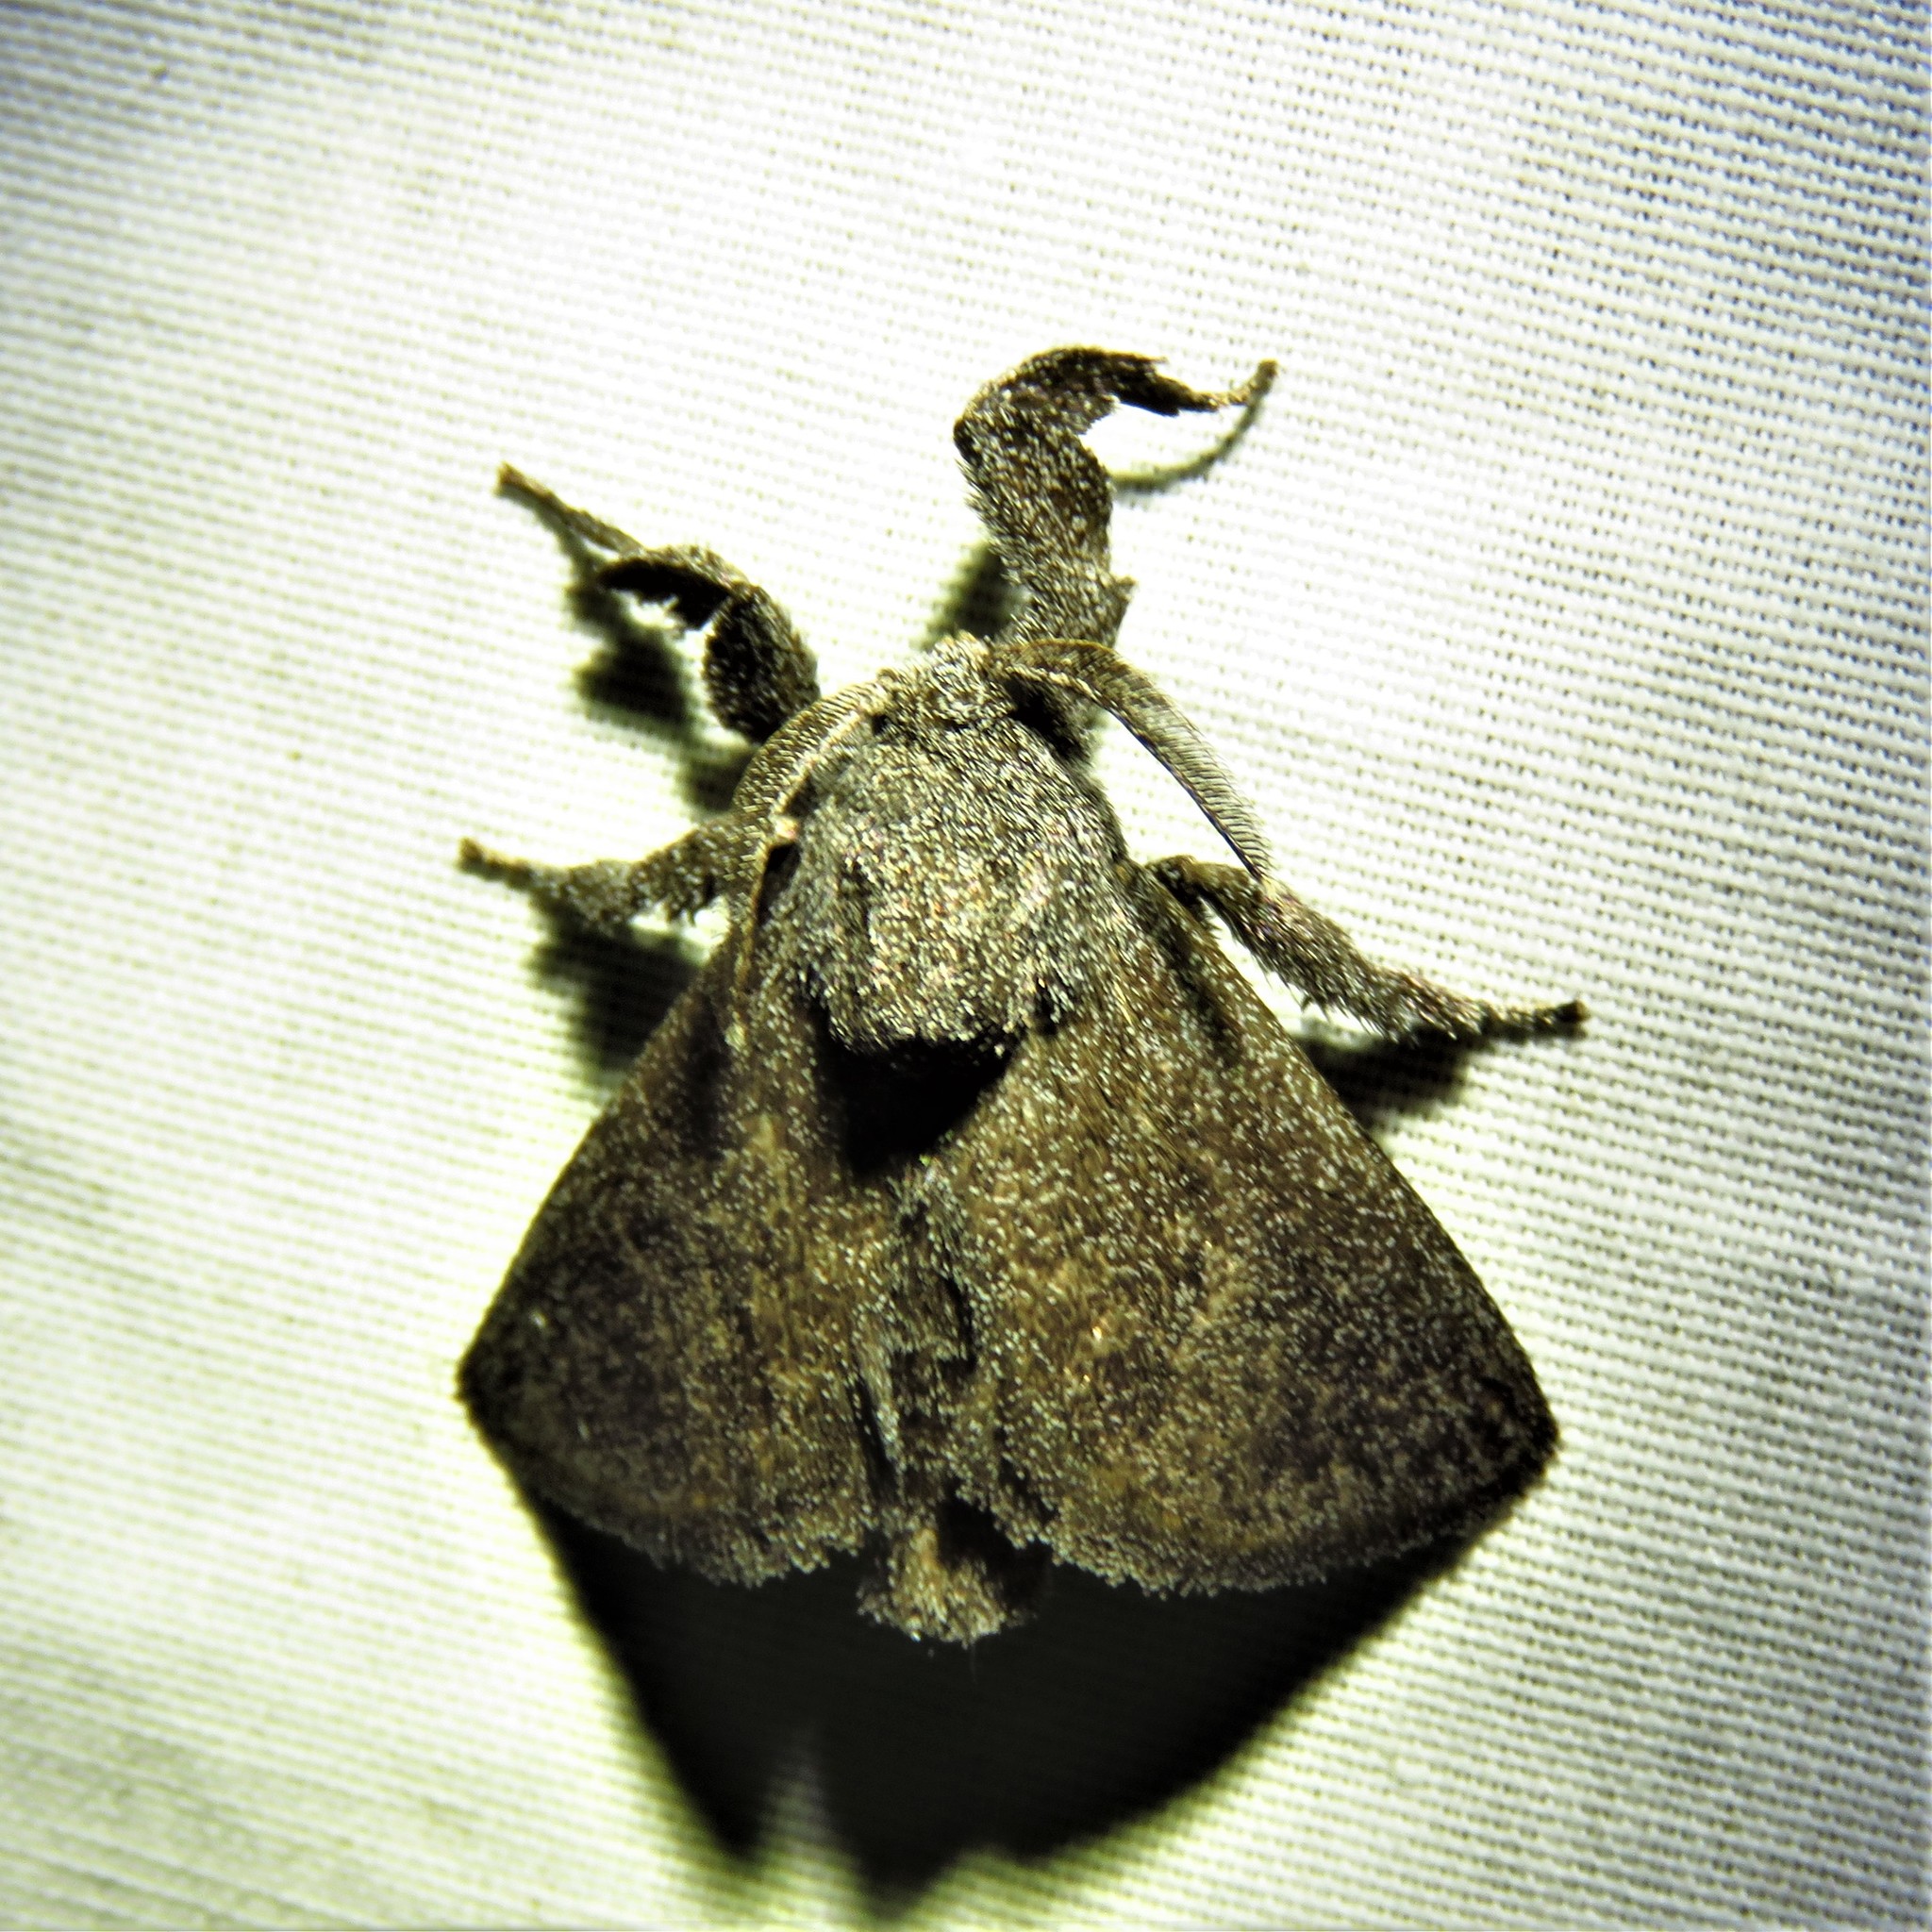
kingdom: Animalia
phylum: Arthropoda
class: Insecta
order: Lepidoptera
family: Limacodidae
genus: Perola
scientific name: Perola repetita
